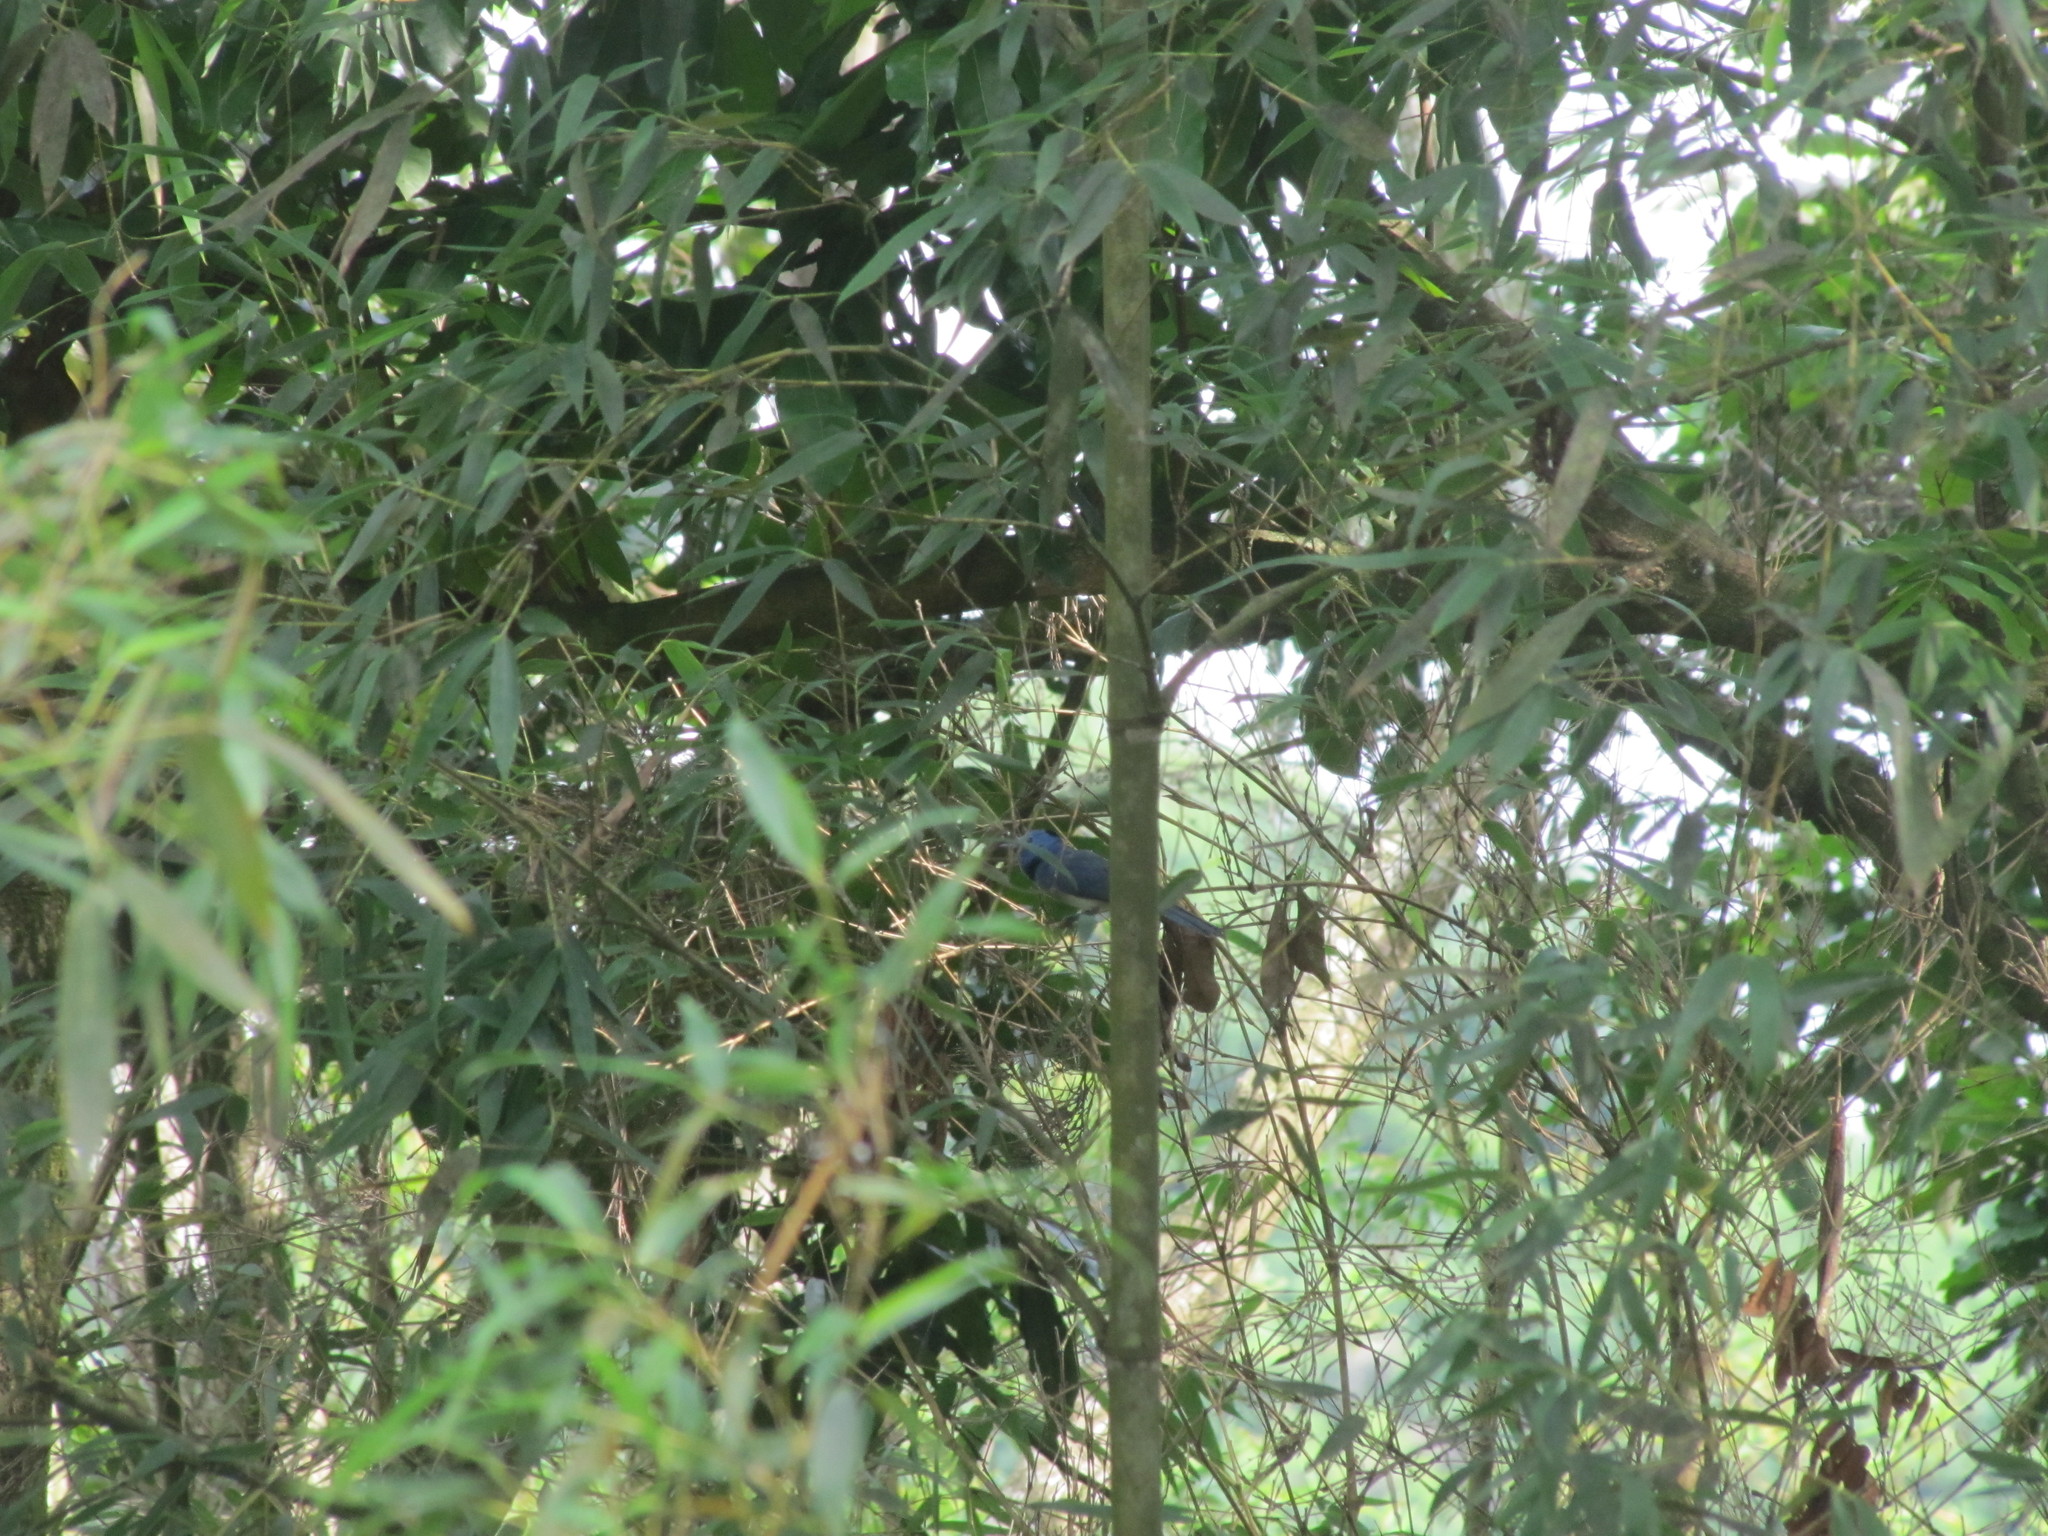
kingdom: Animalia
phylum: Chordata
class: Aves
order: Passeriformes
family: Monarchidae
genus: Hypothymis
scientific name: Hypothymis azurea
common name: Black-naped monarch
